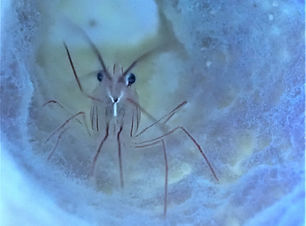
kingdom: Animalia
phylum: Arthropoda
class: Malacostraca
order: Decapoda
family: Lysmatidae
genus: Lysmata
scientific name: Lysmata pederseni
